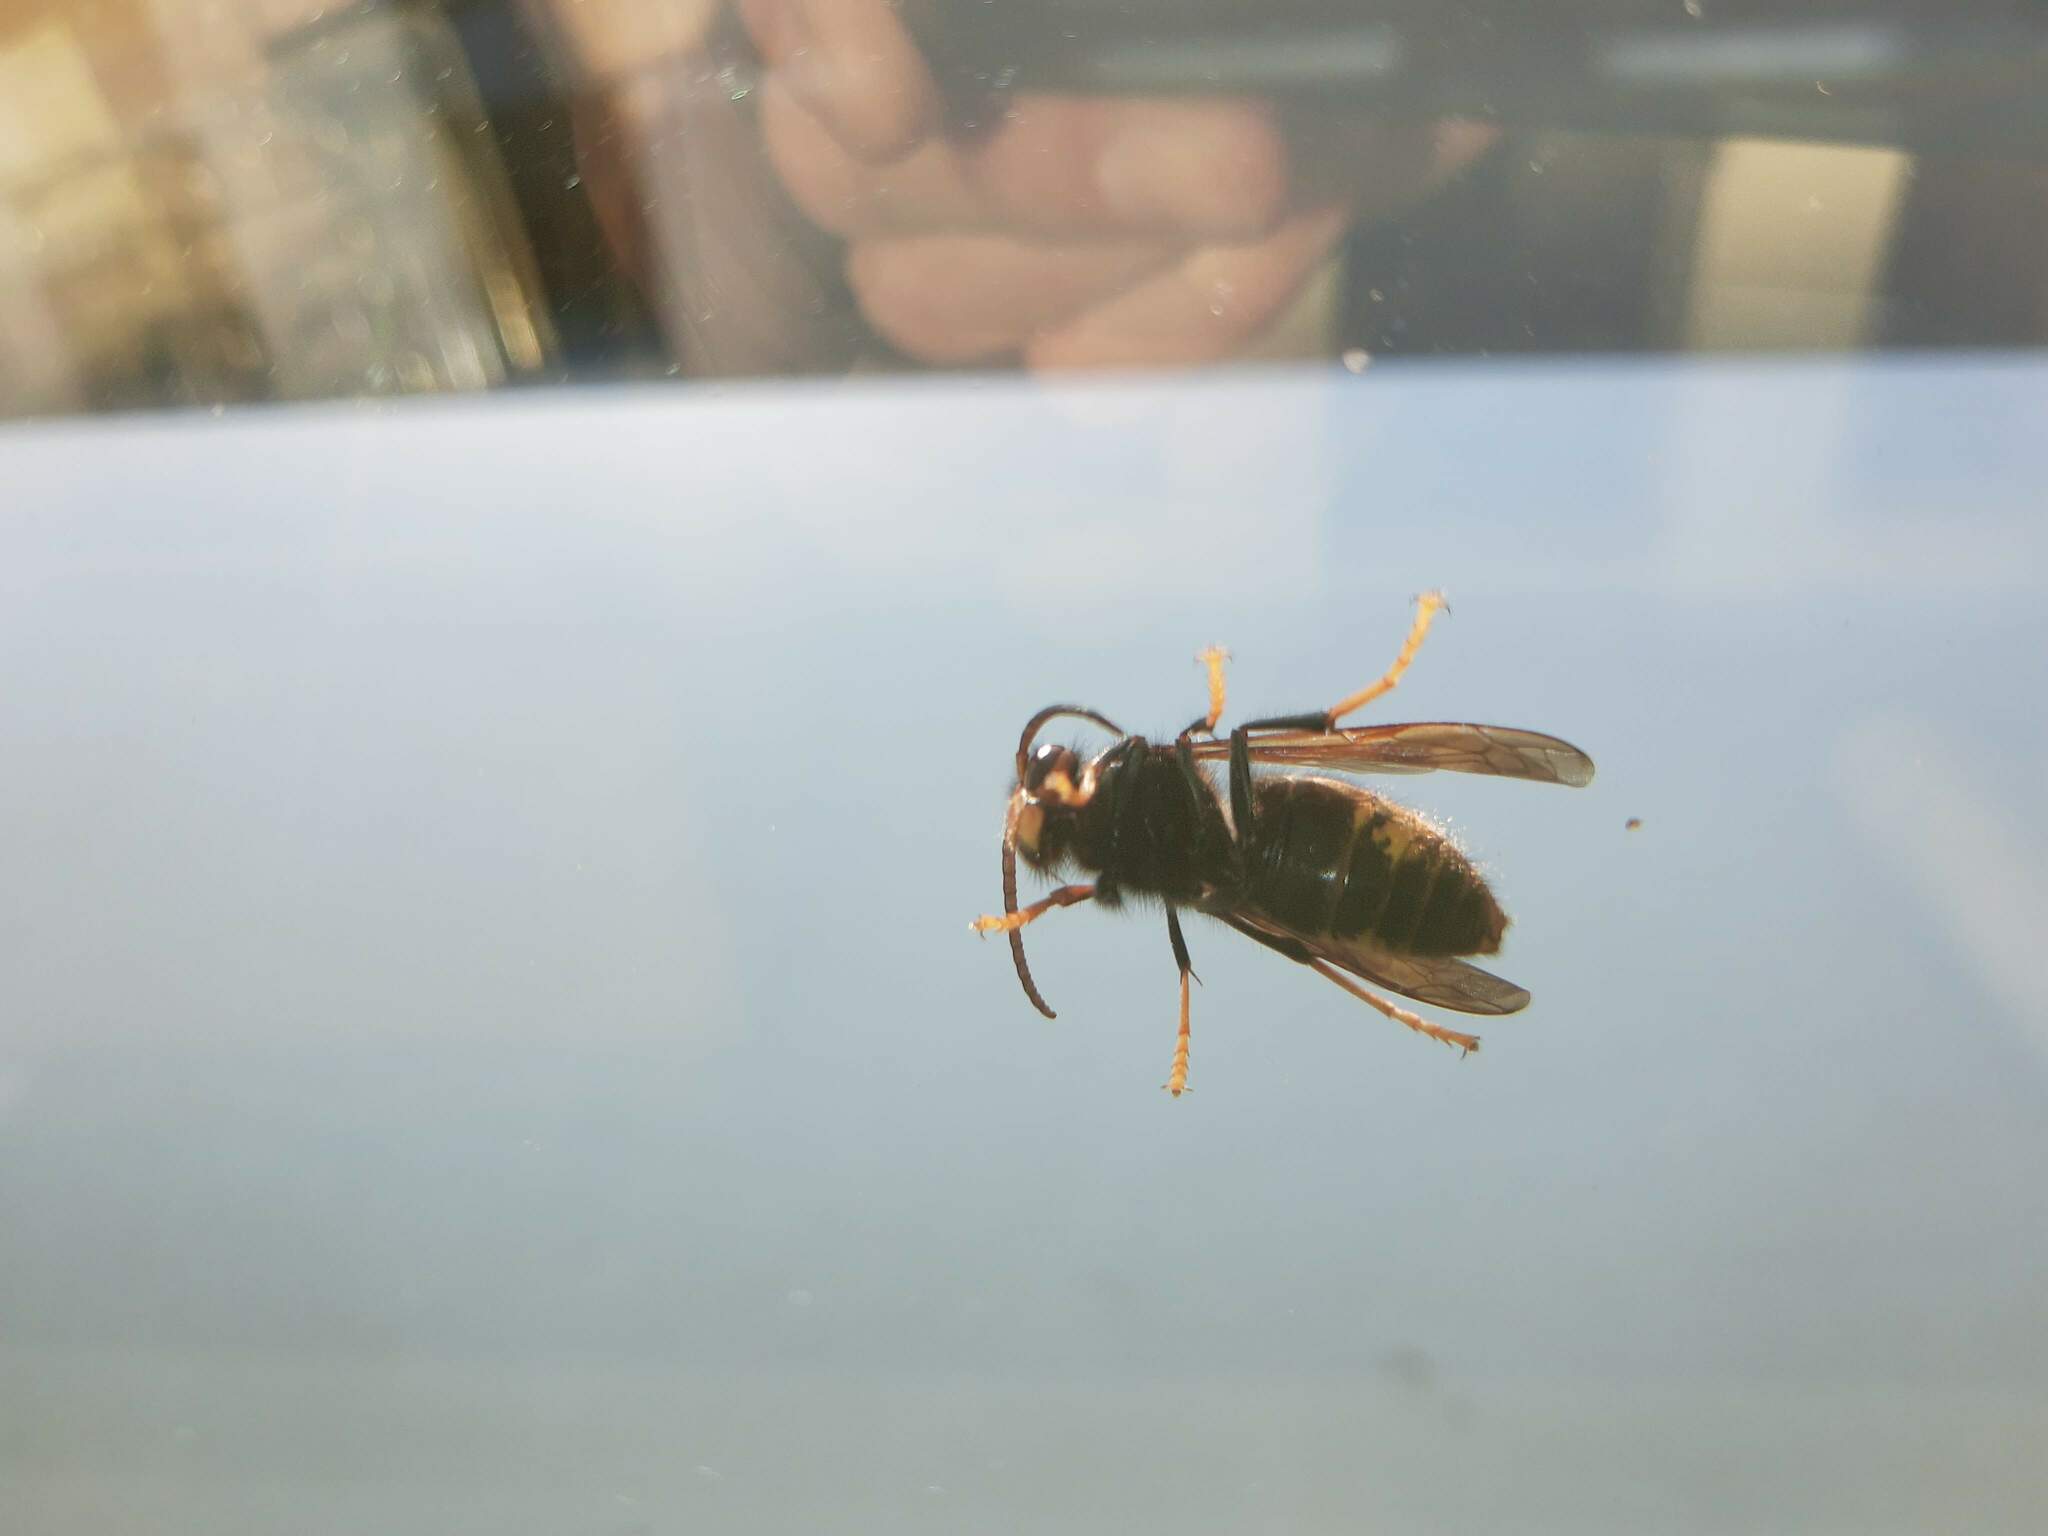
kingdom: Animalia
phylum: Arthropoda
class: Insecta
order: Hymenoptera
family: Vespidae
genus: Vespa
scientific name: Vespa velutina
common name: Asian hornet
